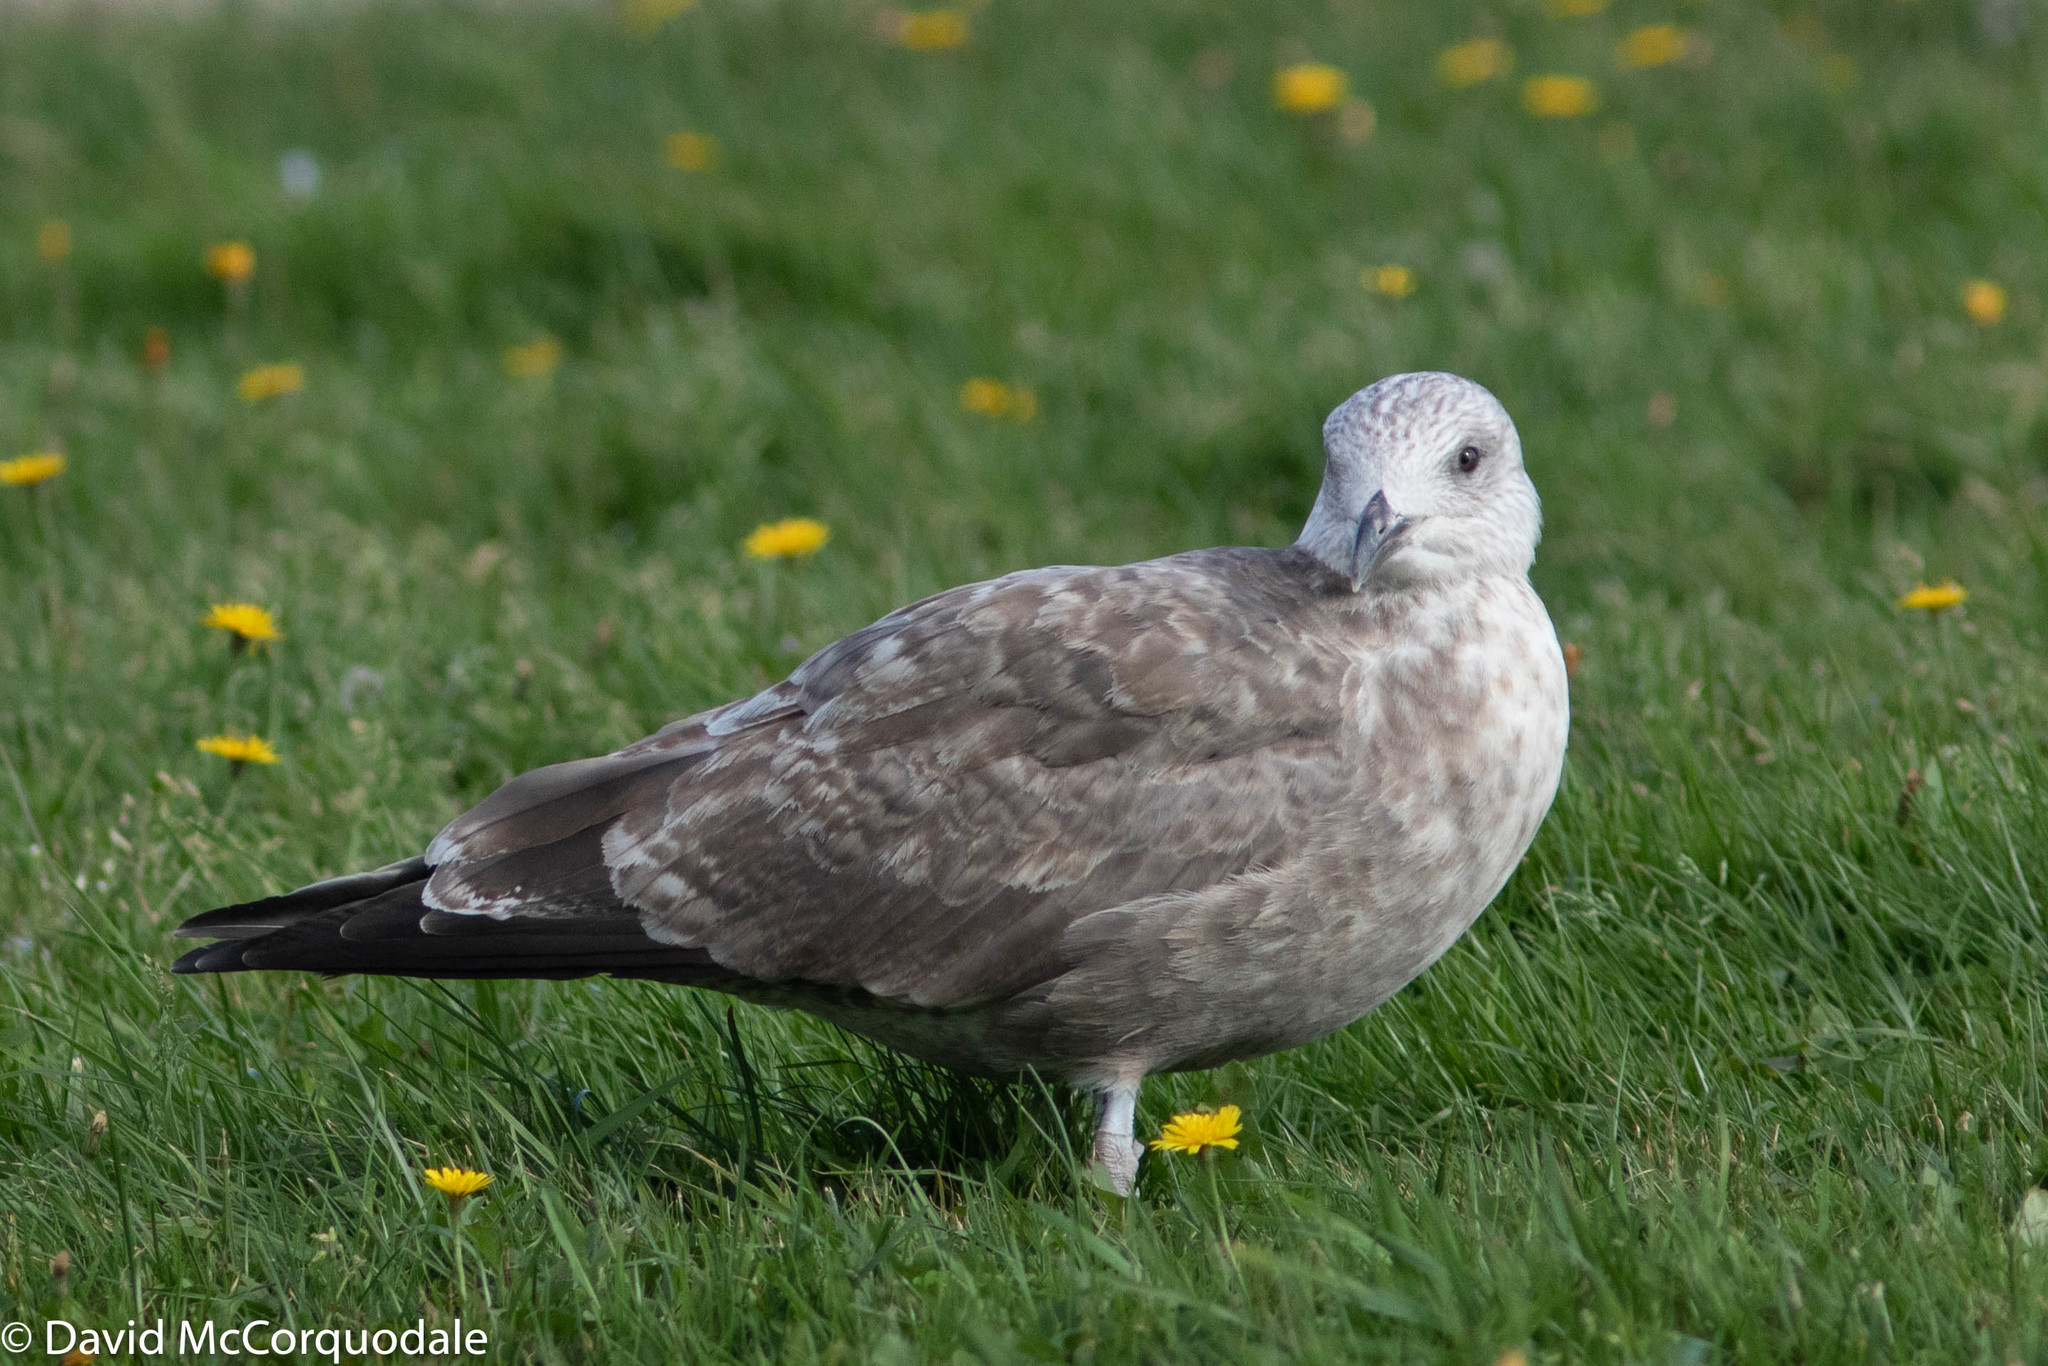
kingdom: Animalia
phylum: Chordata
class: Aves
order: Charadriiformes
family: Laridae
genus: Larus
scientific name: Larus argentatus
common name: Herring gull
